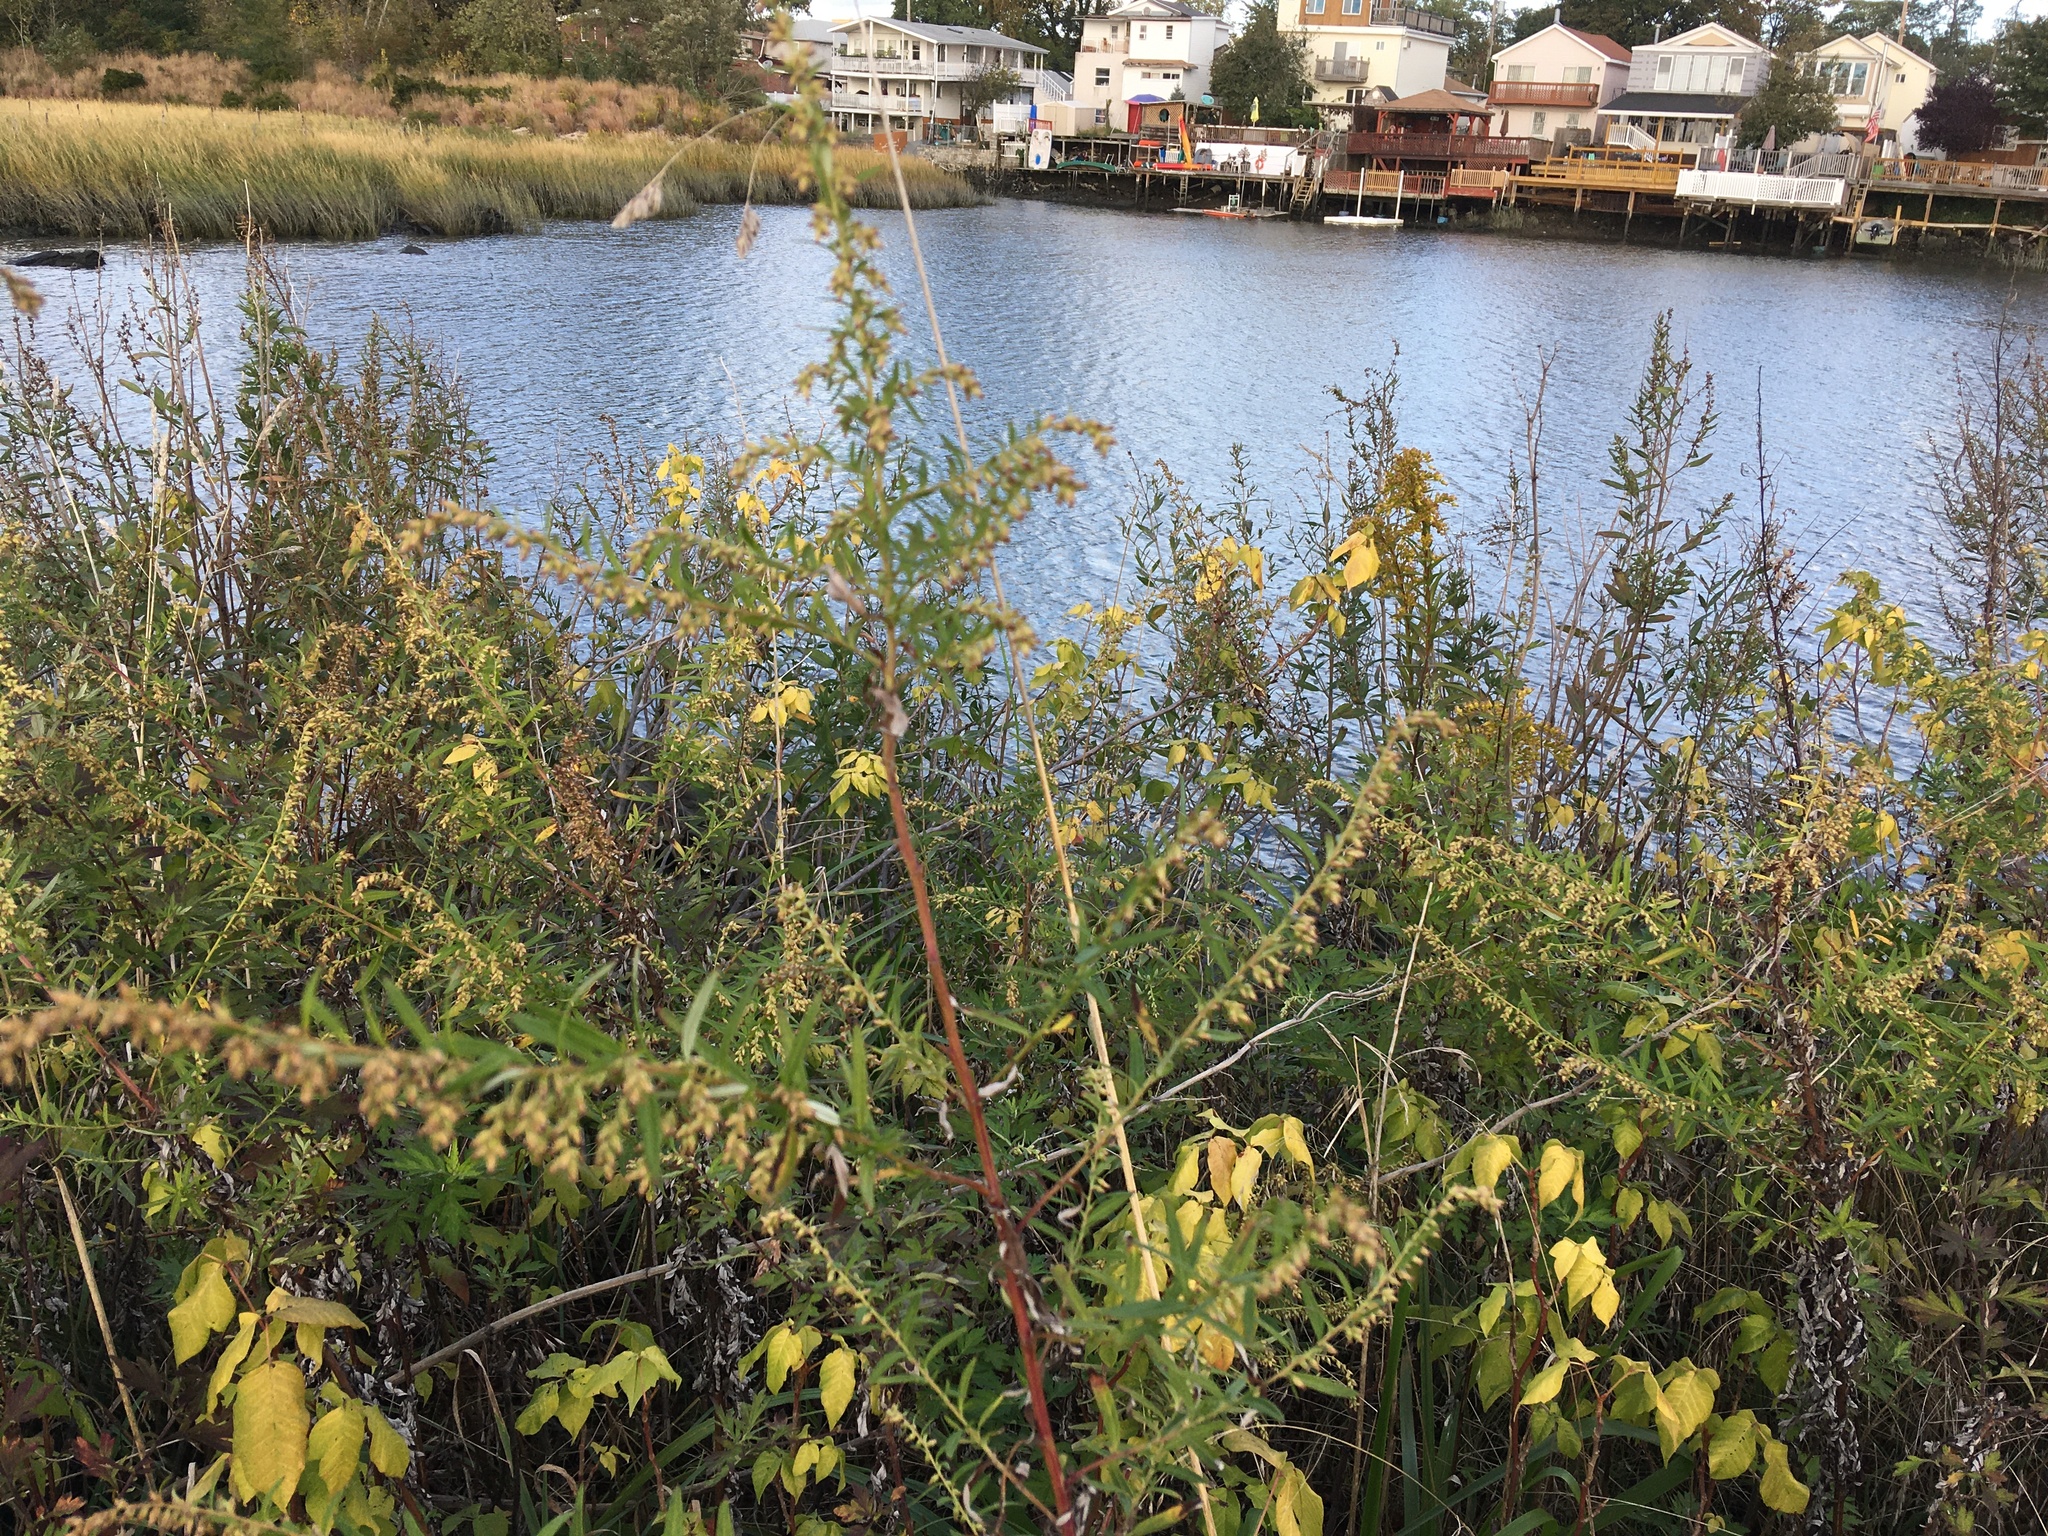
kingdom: Plantae
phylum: Tracheophyta
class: Magnoliopsida
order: Asterales
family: Asteraceae
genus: Artemisia
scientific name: Artemisia vulgaris
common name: Mugwort
